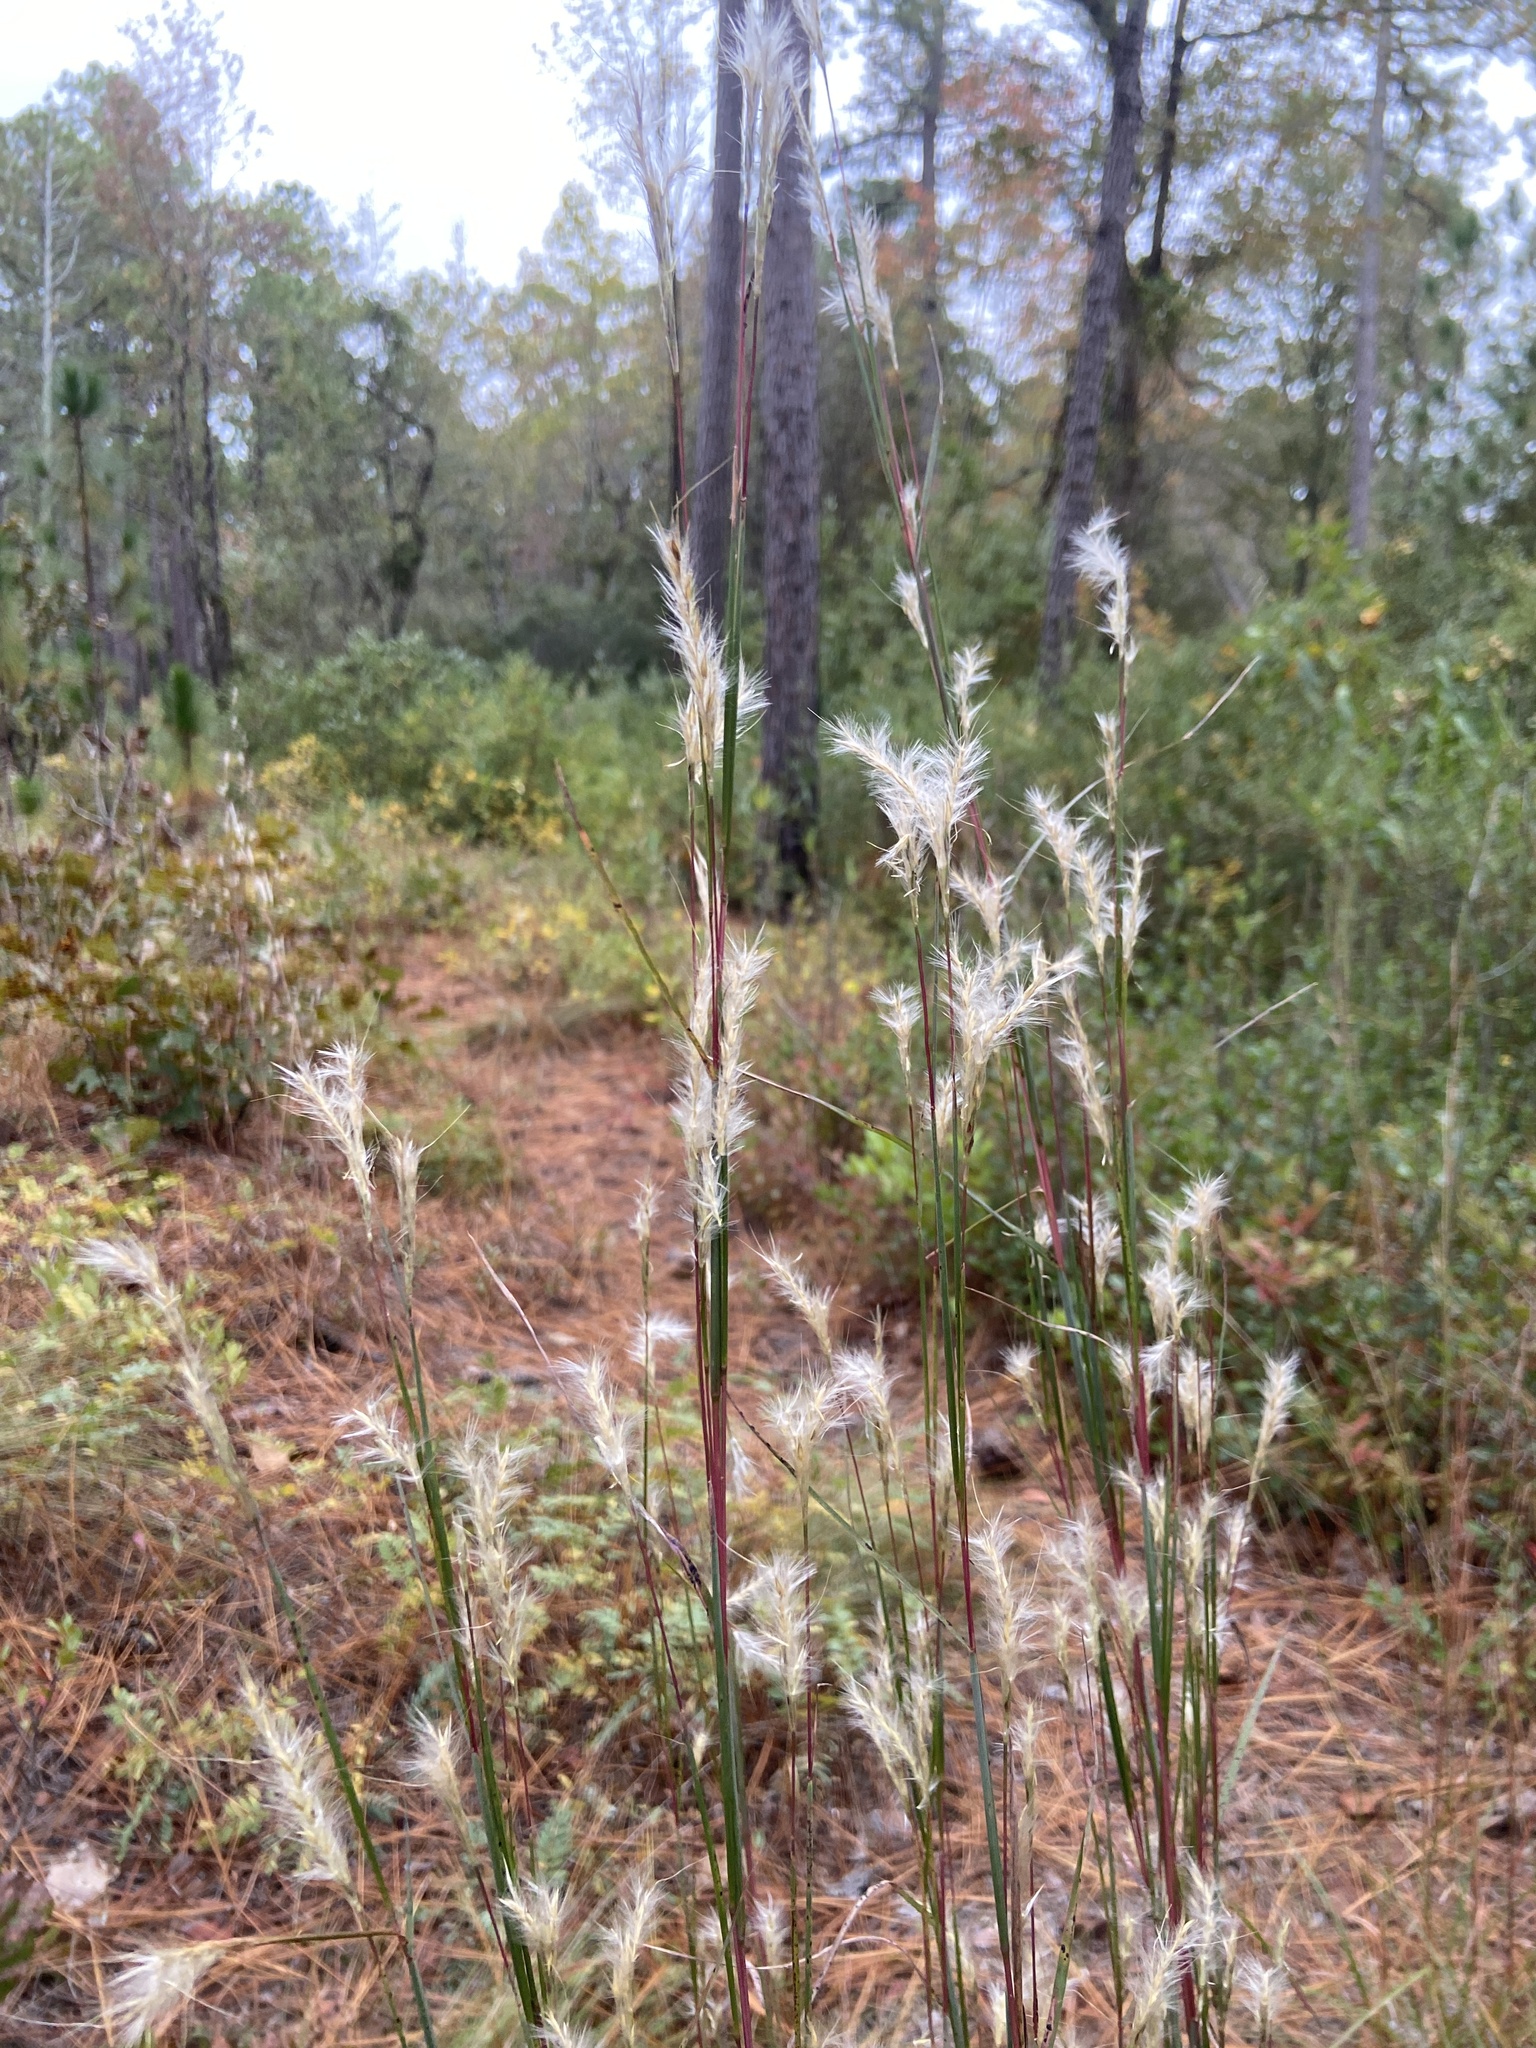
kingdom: Plantae
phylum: Tracheophyta
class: Liliopsida
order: Poales
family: Poaceae
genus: Andropogon
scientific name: Andropogon ternarius
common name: Split bluestem
